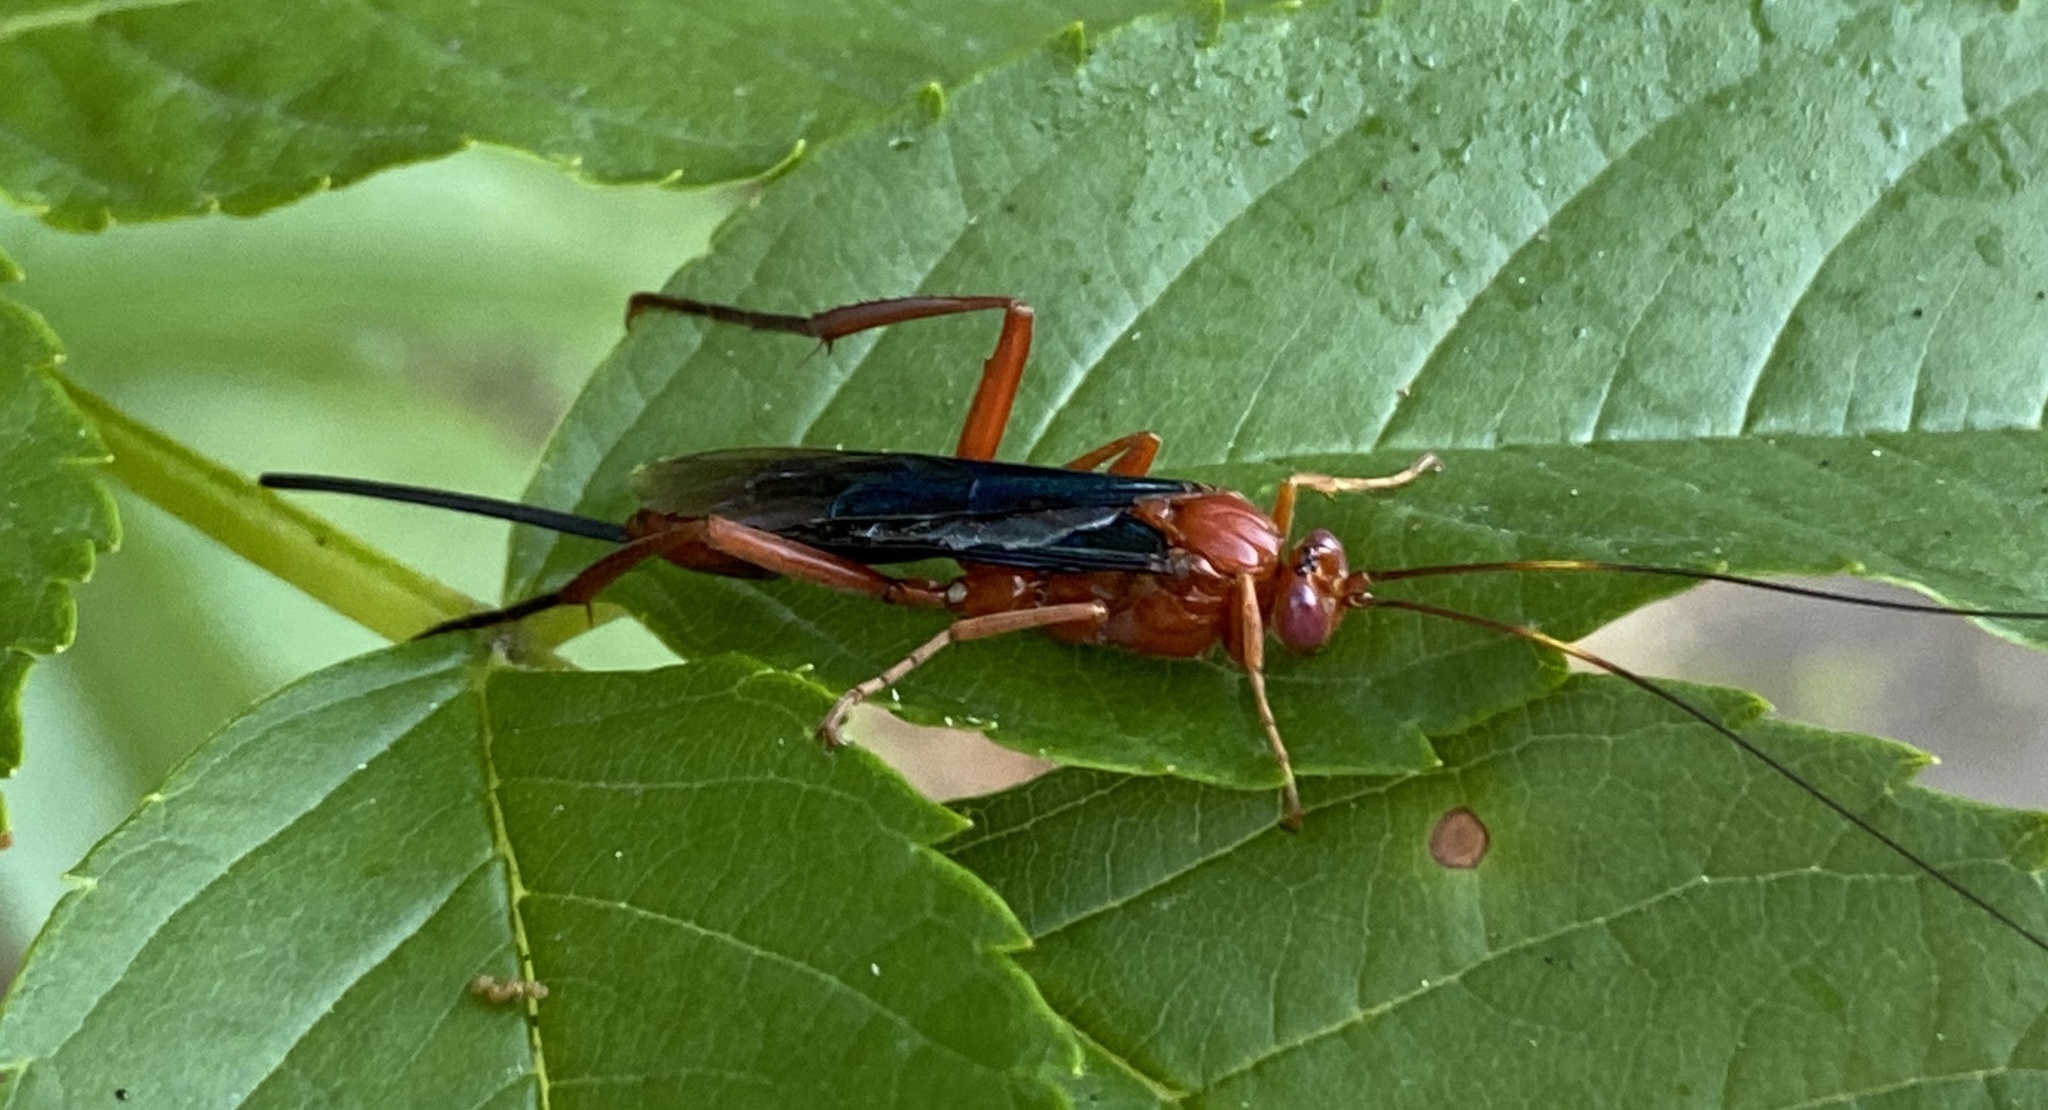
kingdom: Animalia
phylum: Arthropoda
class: Insecta
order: Hymenoptera
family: Ichneumonidae
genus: Lissopimpla
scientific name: Lissopimpla excelsa
